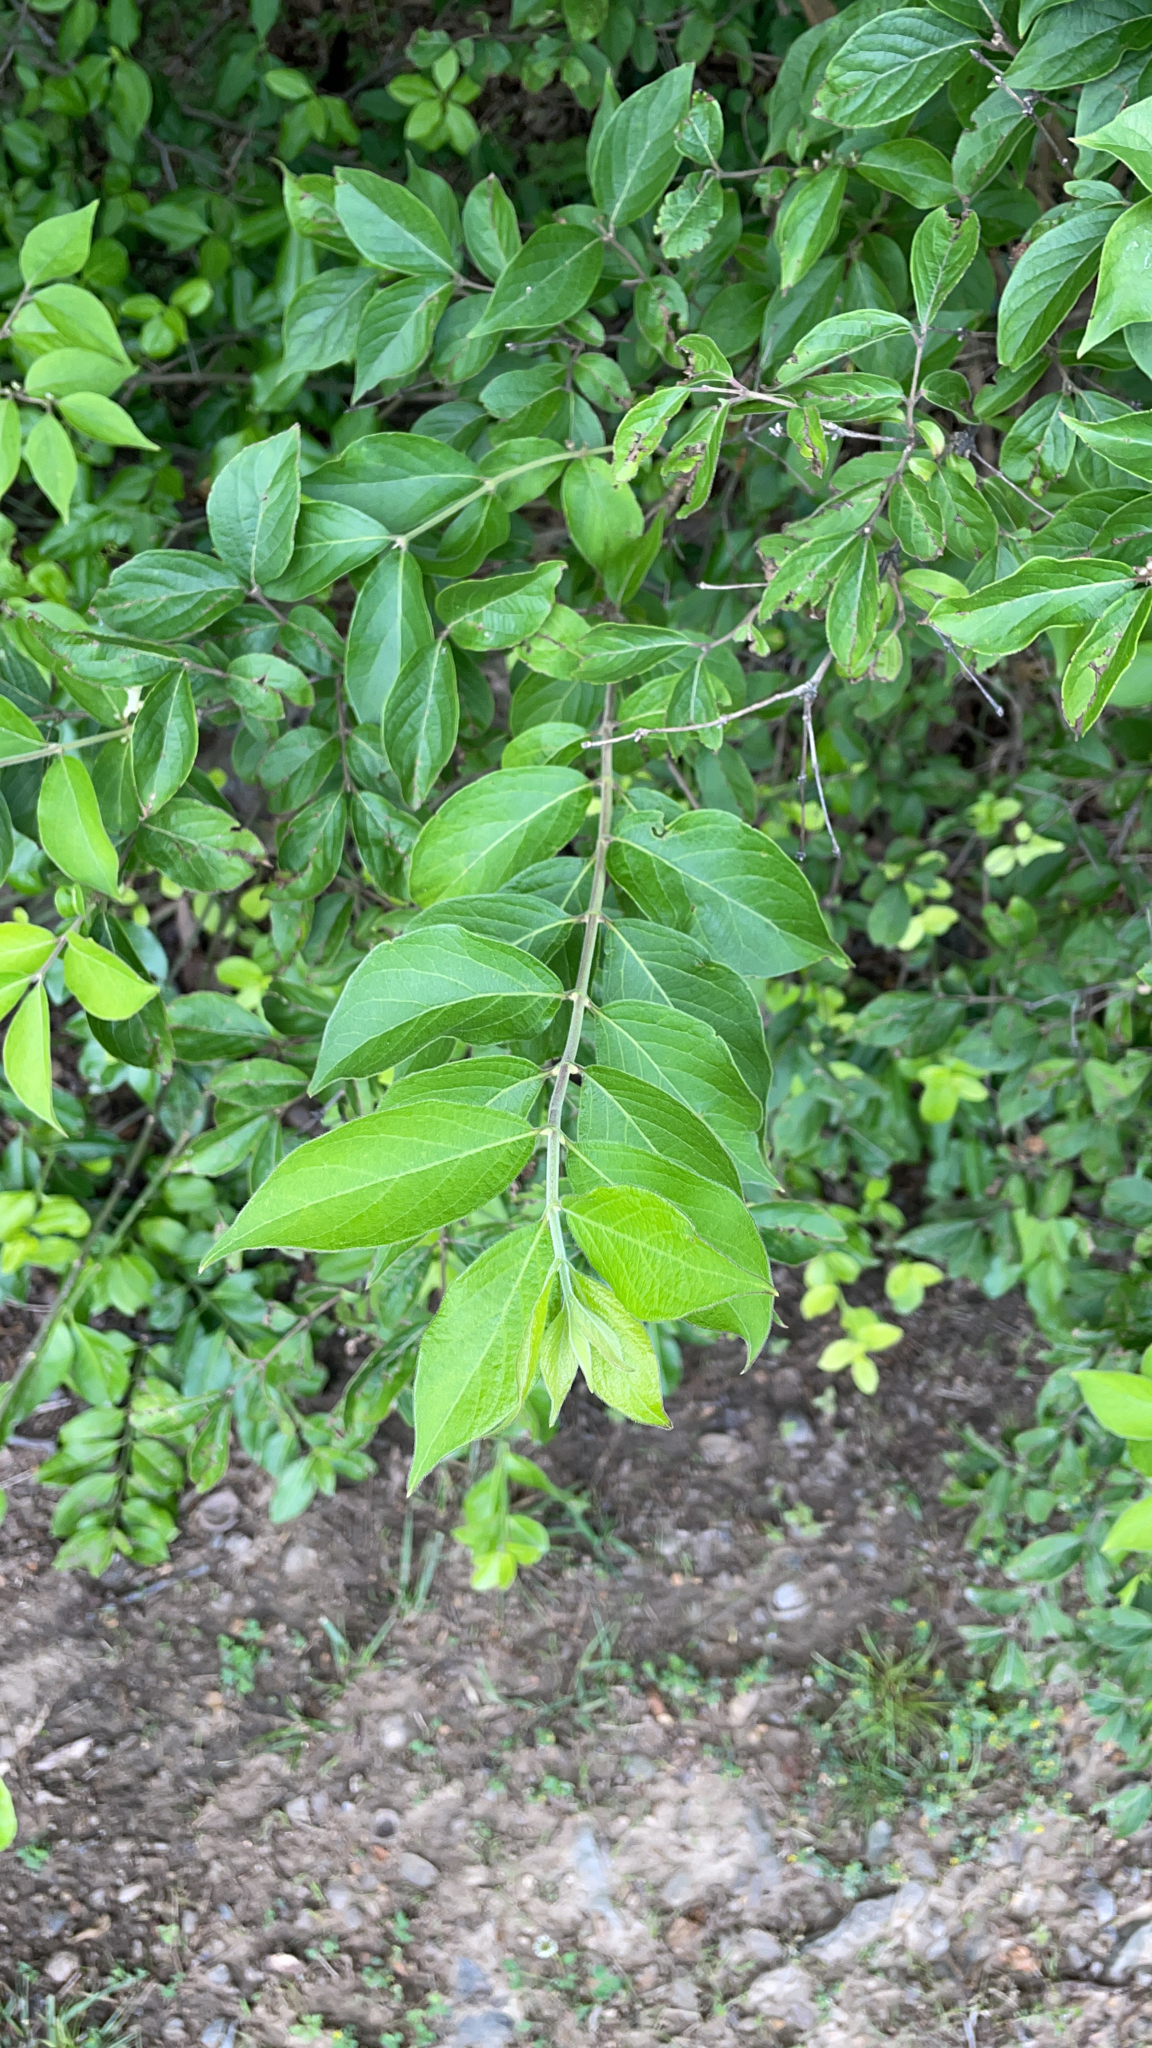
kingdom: Plantae
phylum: Tracheophyta
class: Magnoliopsida
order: Dipsacales
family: Caprifoliaceae
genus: Lonicera
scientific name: Lonicera maackii
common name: Amur honeysuckle
